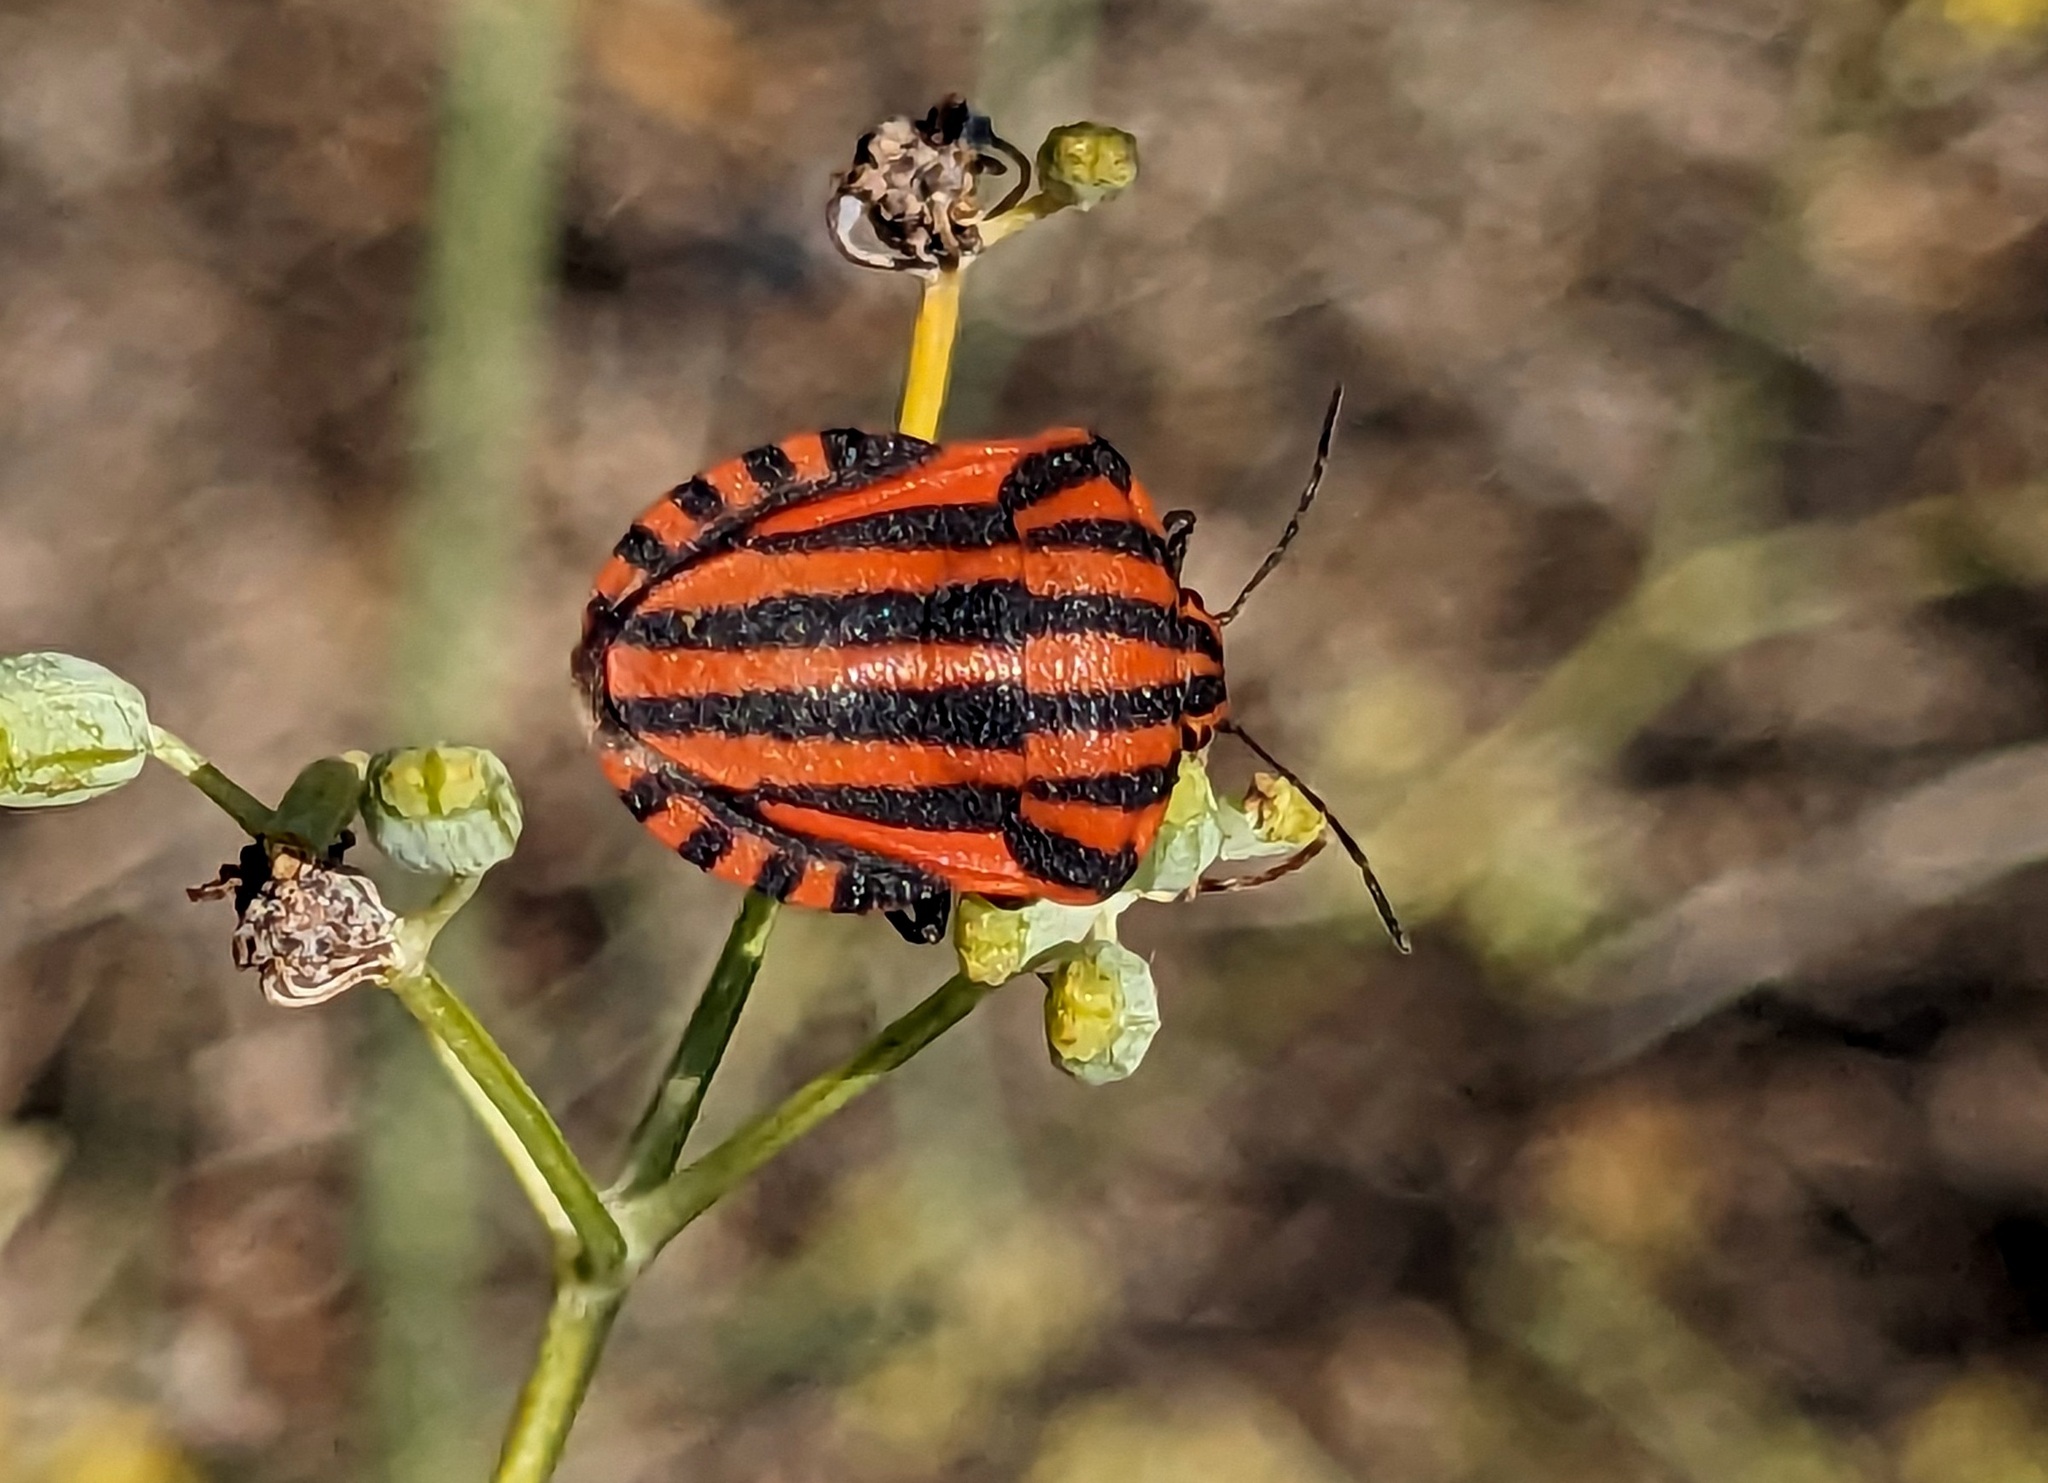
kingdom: Animalia
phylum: Arthropoda
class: Insecta
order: Hemiptera
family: Pentatomidae
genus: Graphosoma
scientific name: Graphosoma italicum
